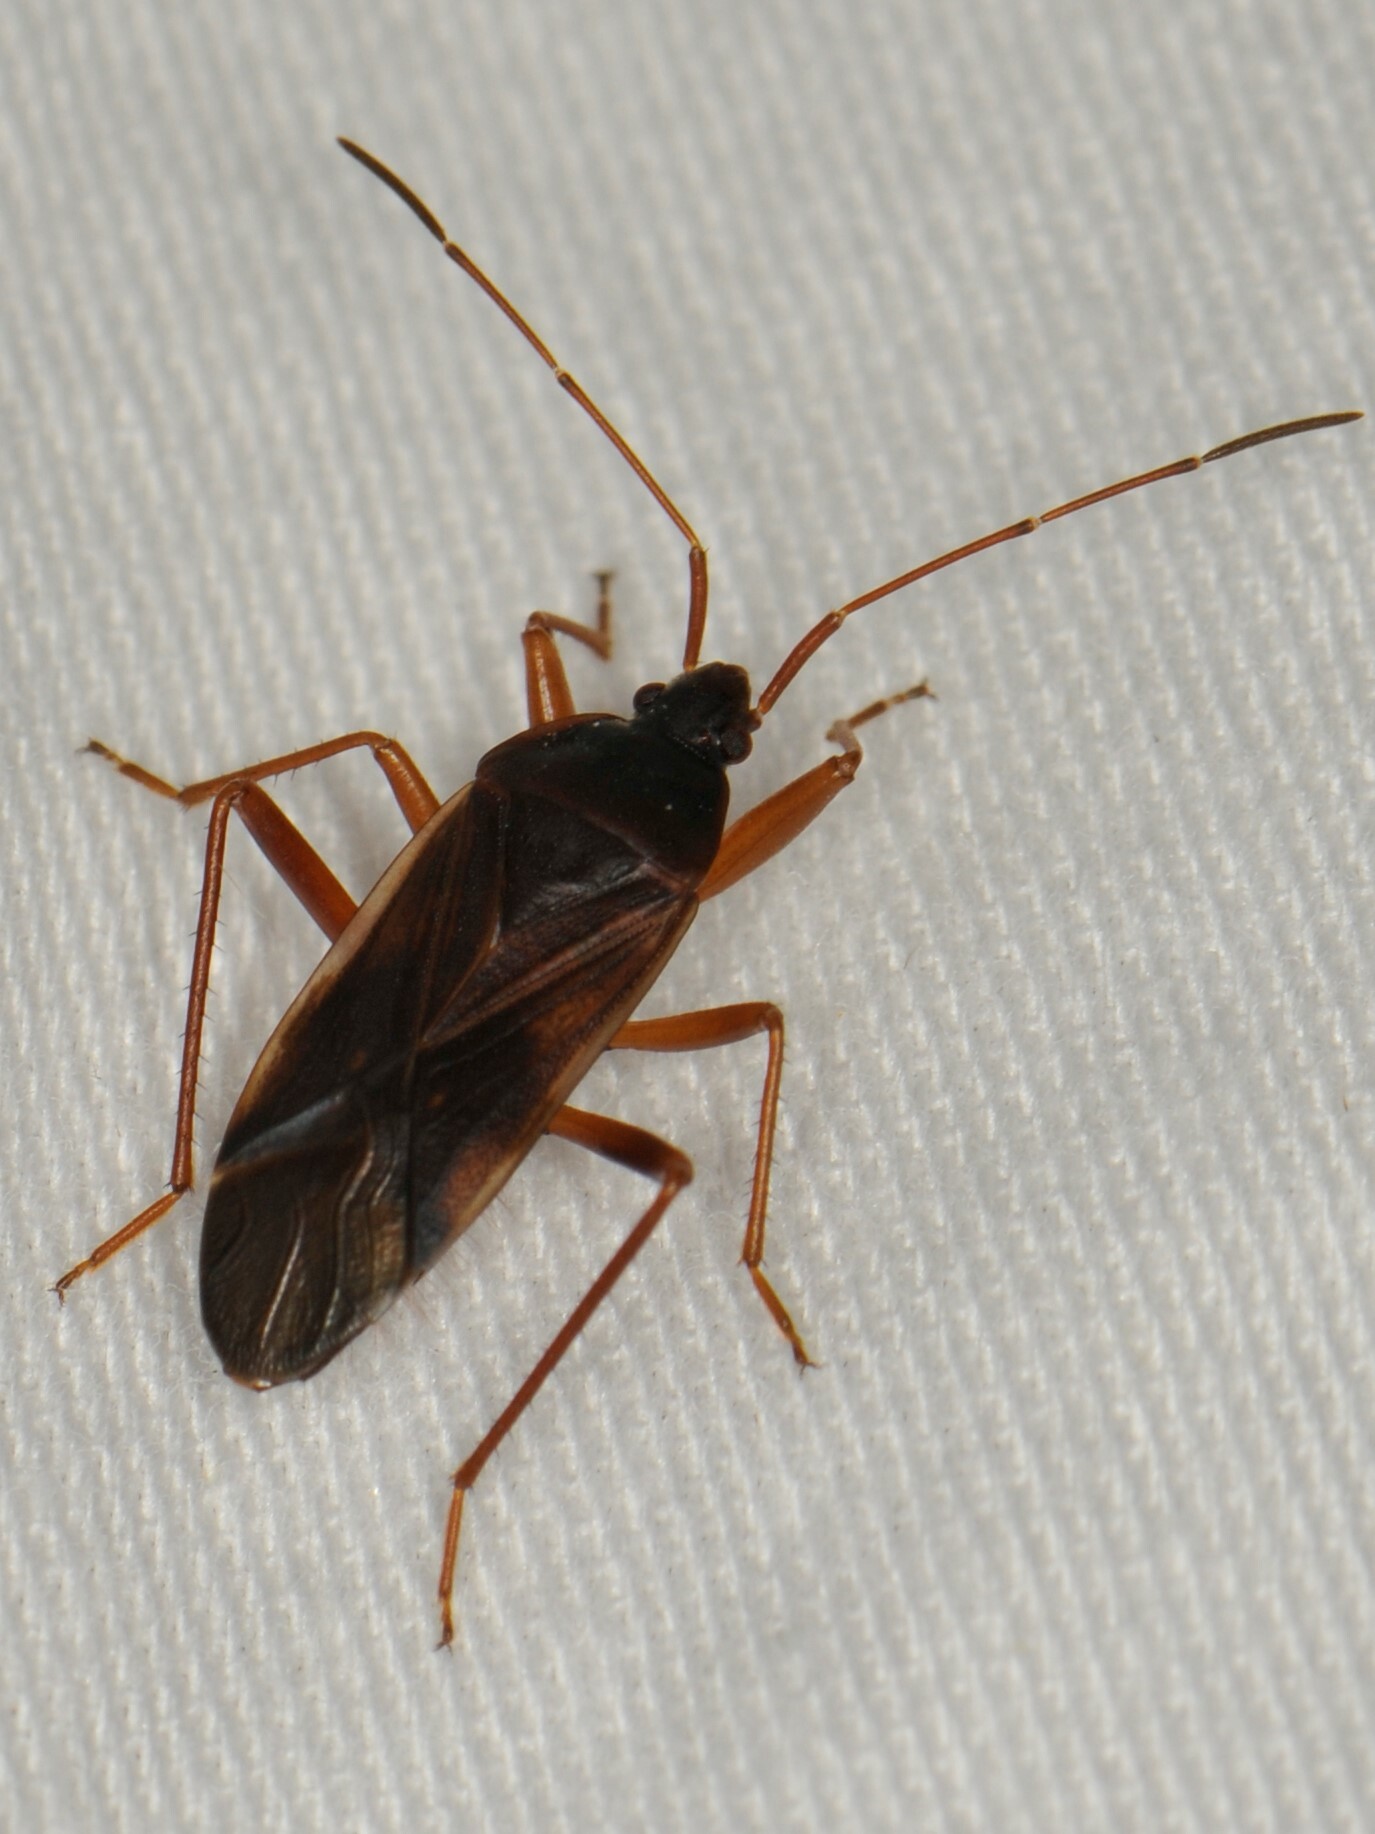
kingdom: Animalia
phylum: Arthropoda
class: Insecta
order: Hemiptera
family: Rhyparochromidae
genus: Balboa
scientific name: Balboa ampliata
